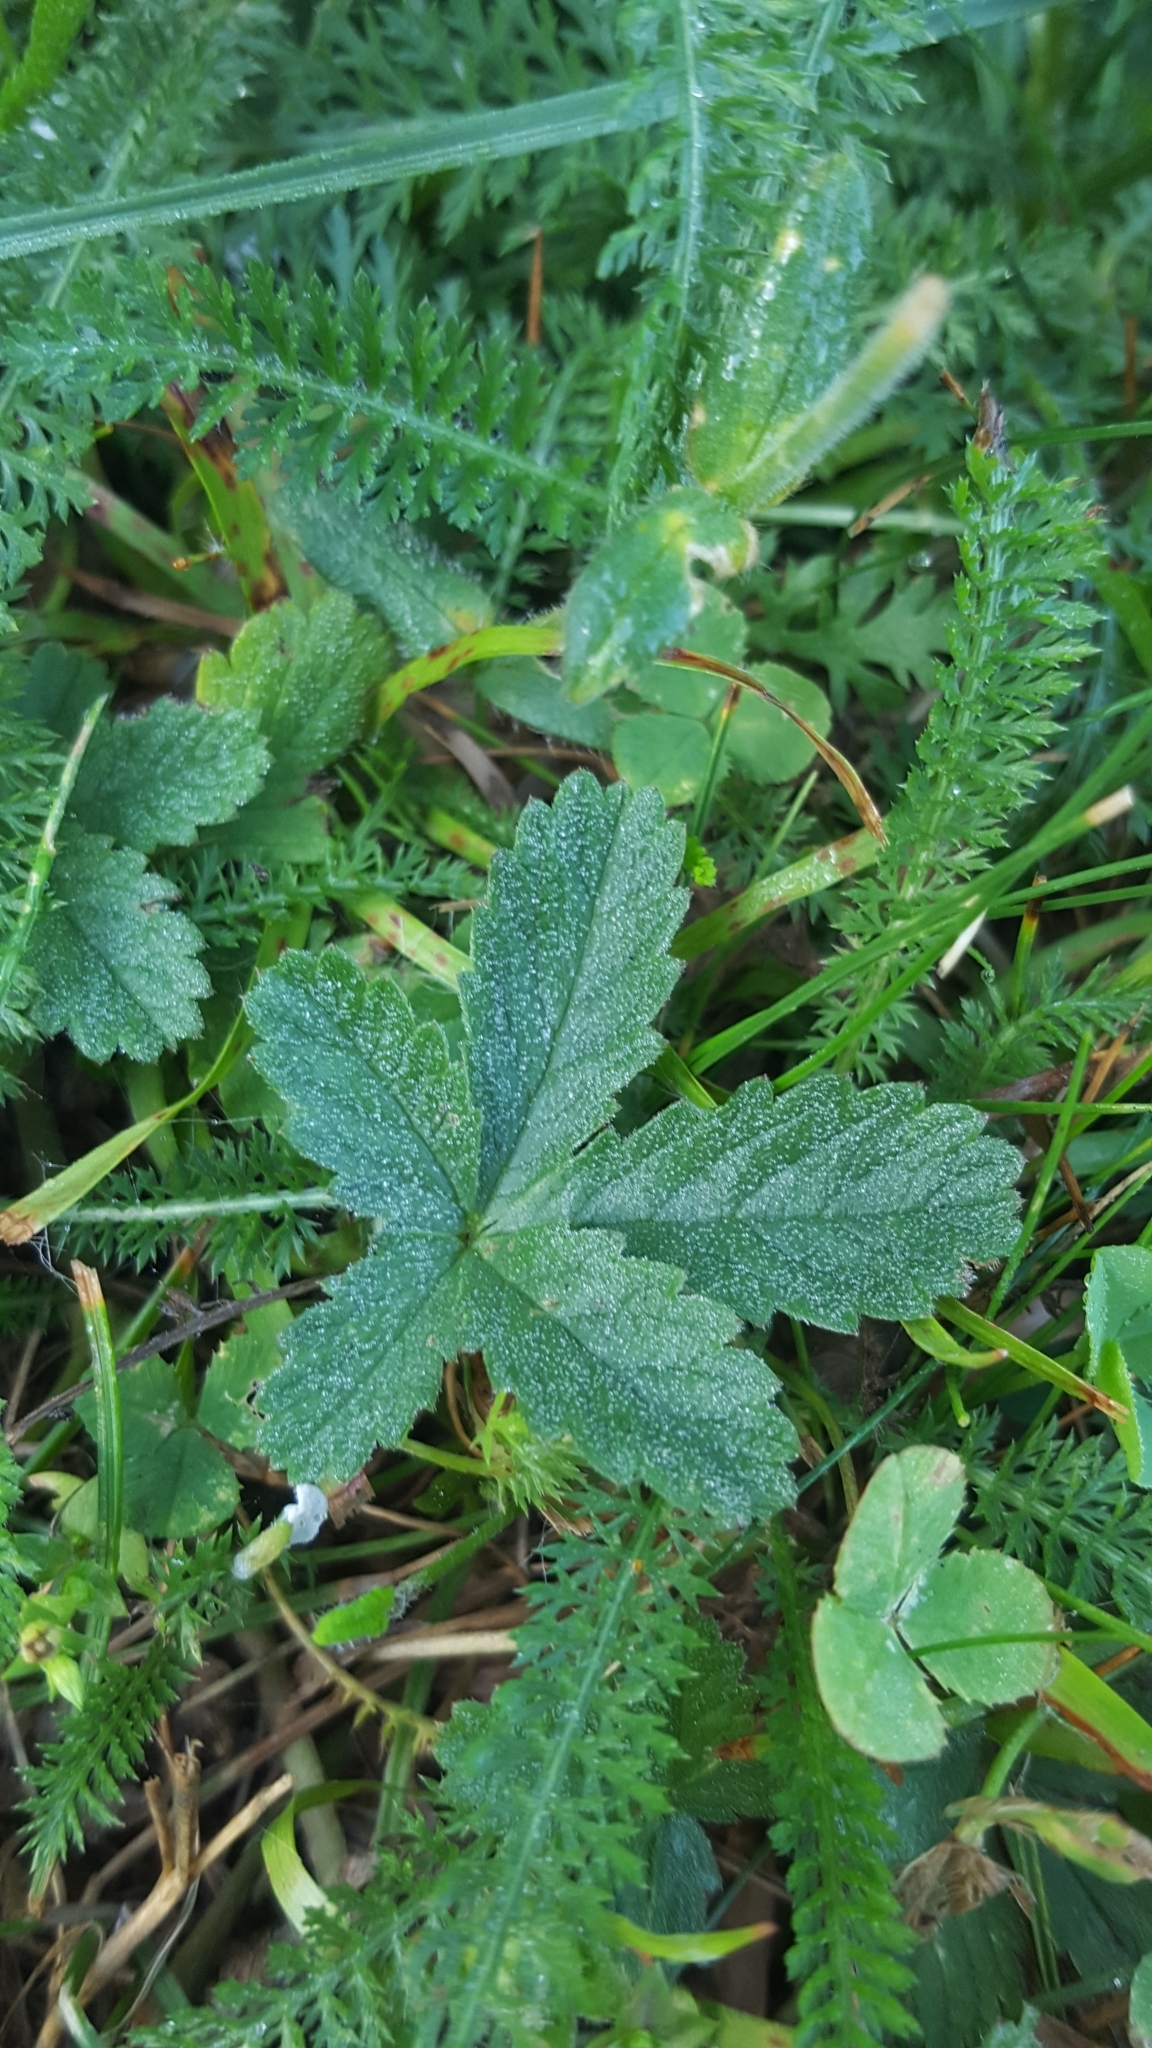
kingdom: Plantae
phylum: Tracheophyta
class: Magnoliopsida
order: Rosales
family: Rosaceae
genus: Potentilla
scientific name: Potentilla reptans
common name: Creeping cinquefoil
